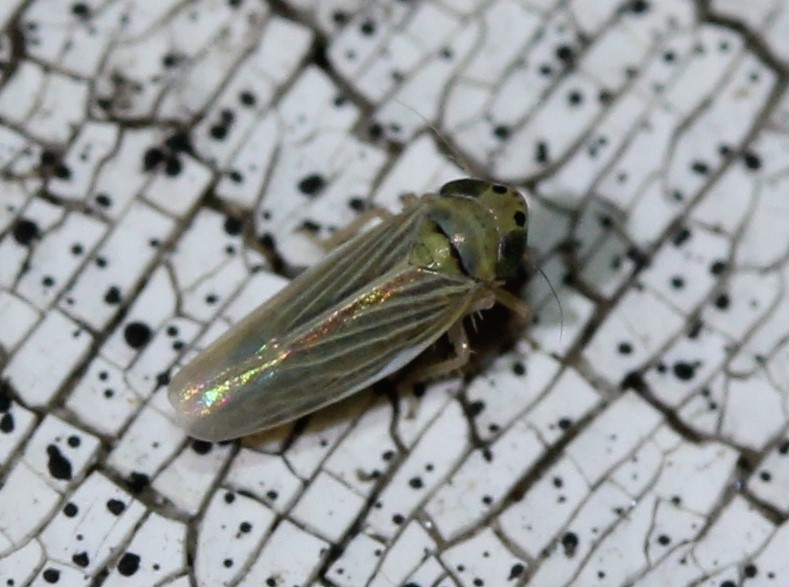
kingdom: Animalia
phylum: Arthropoda
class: Insecta
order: Hemiptera
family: Cicadellidae
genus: Graminella
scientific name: Graminella cognita
